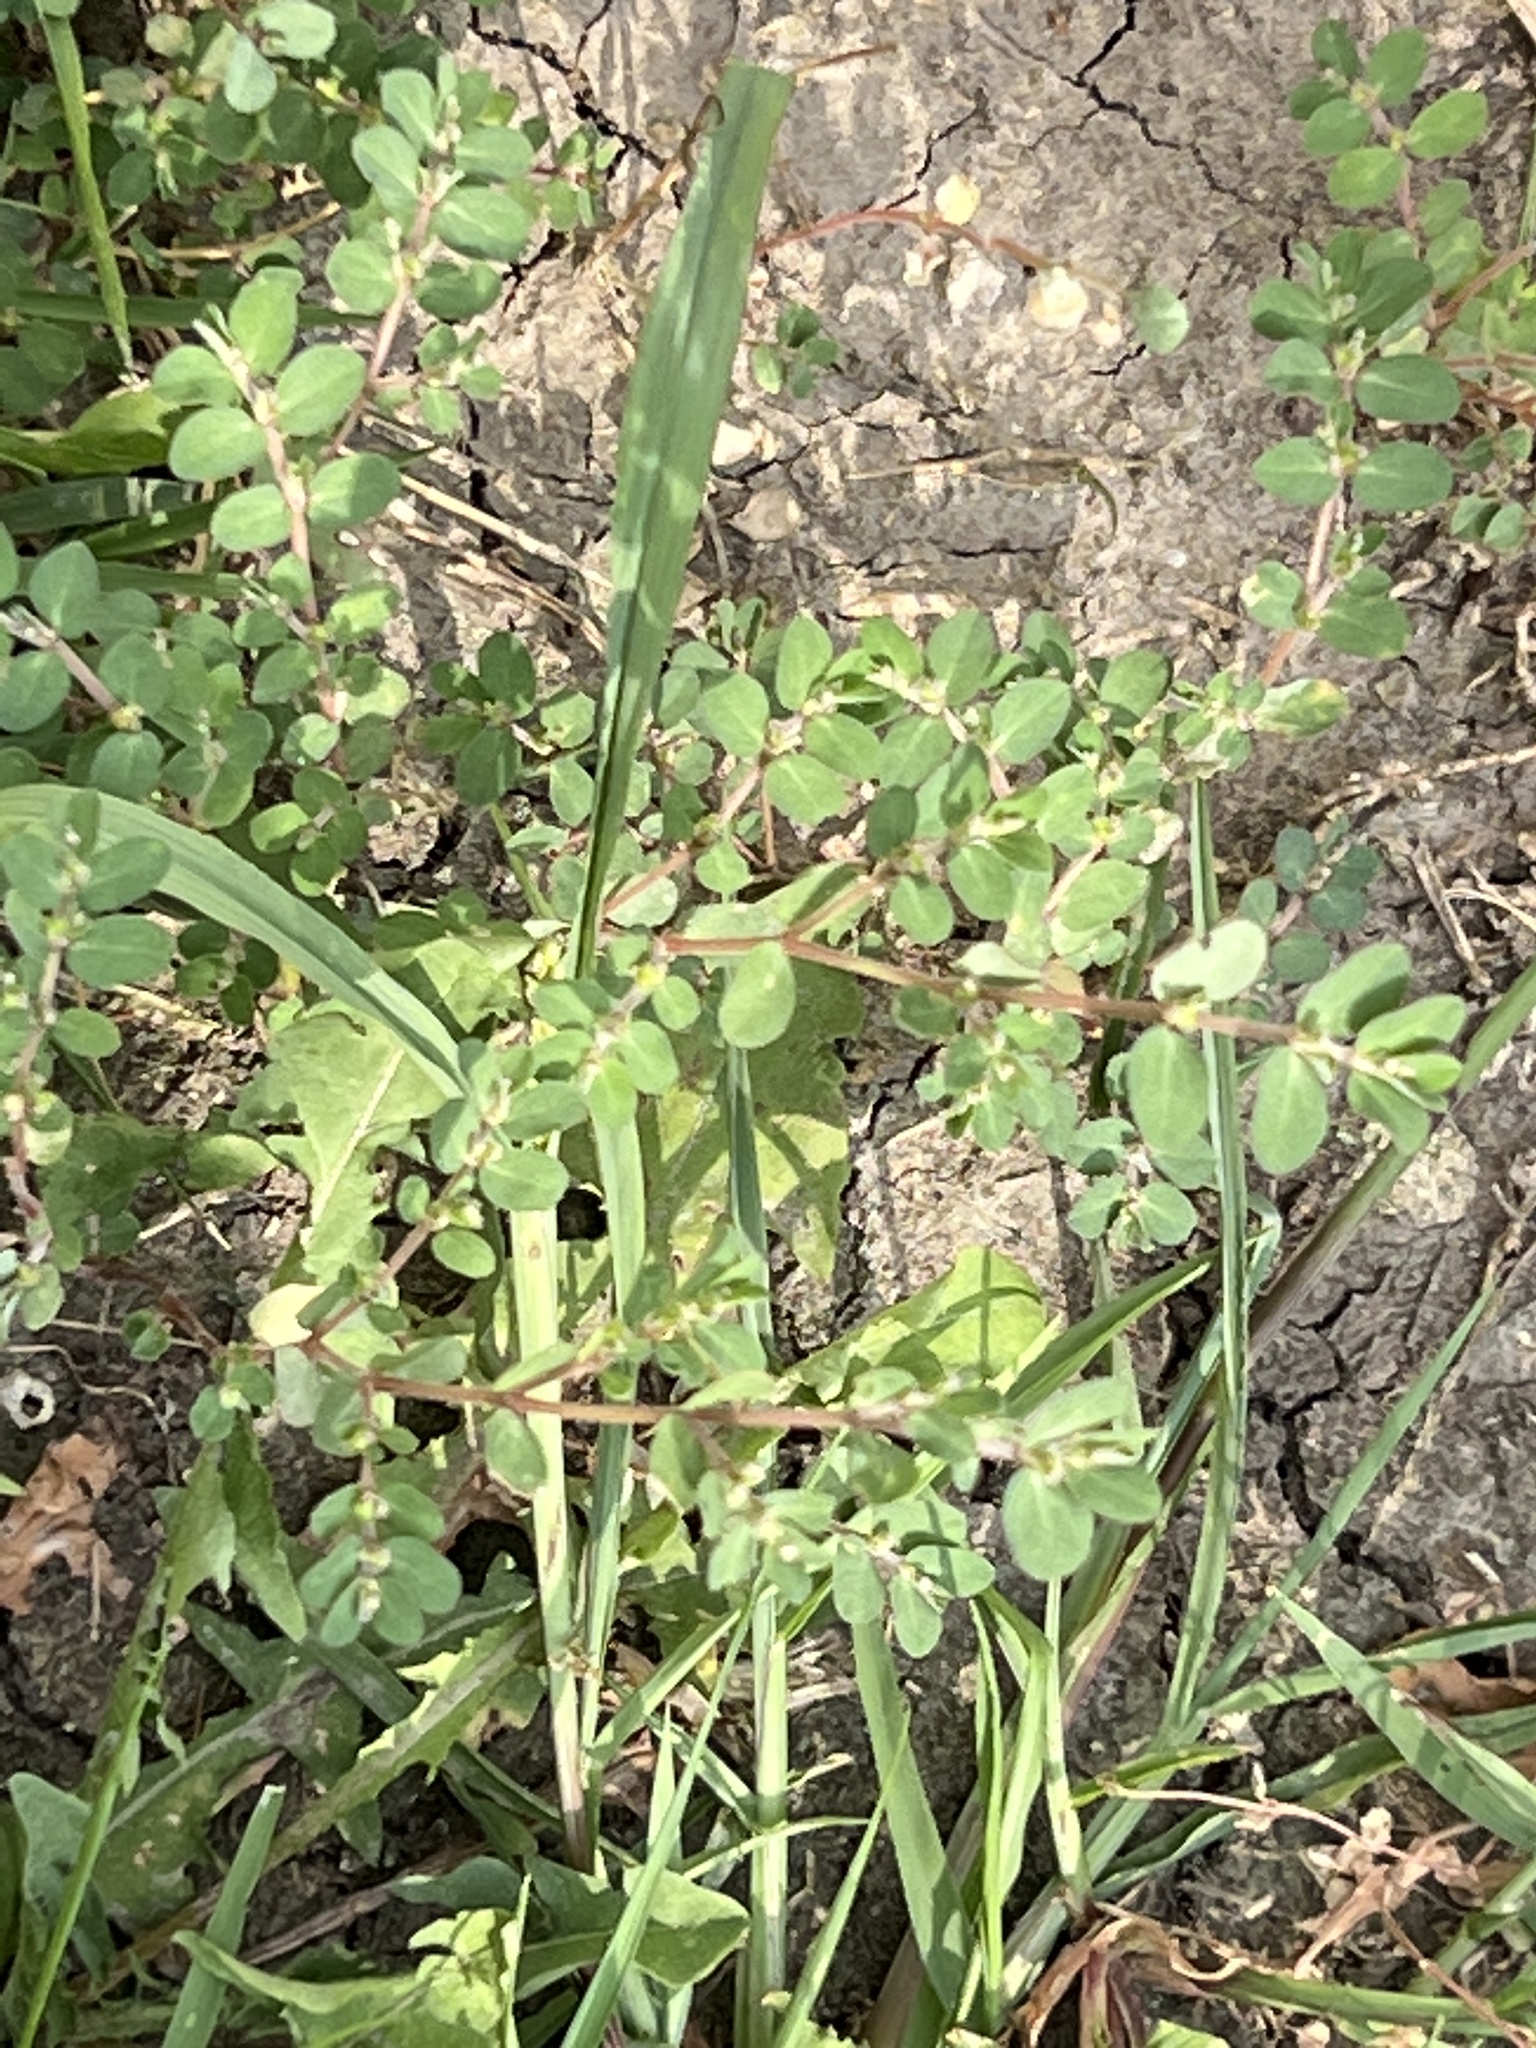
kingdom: Plantae
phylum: Tracheophyta
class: Magnoliopsida
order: Malpighiales
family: Euphorbiaceae
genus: Euphorbia
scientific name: Euphorbia prostrata
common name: Prostrate sandmat
